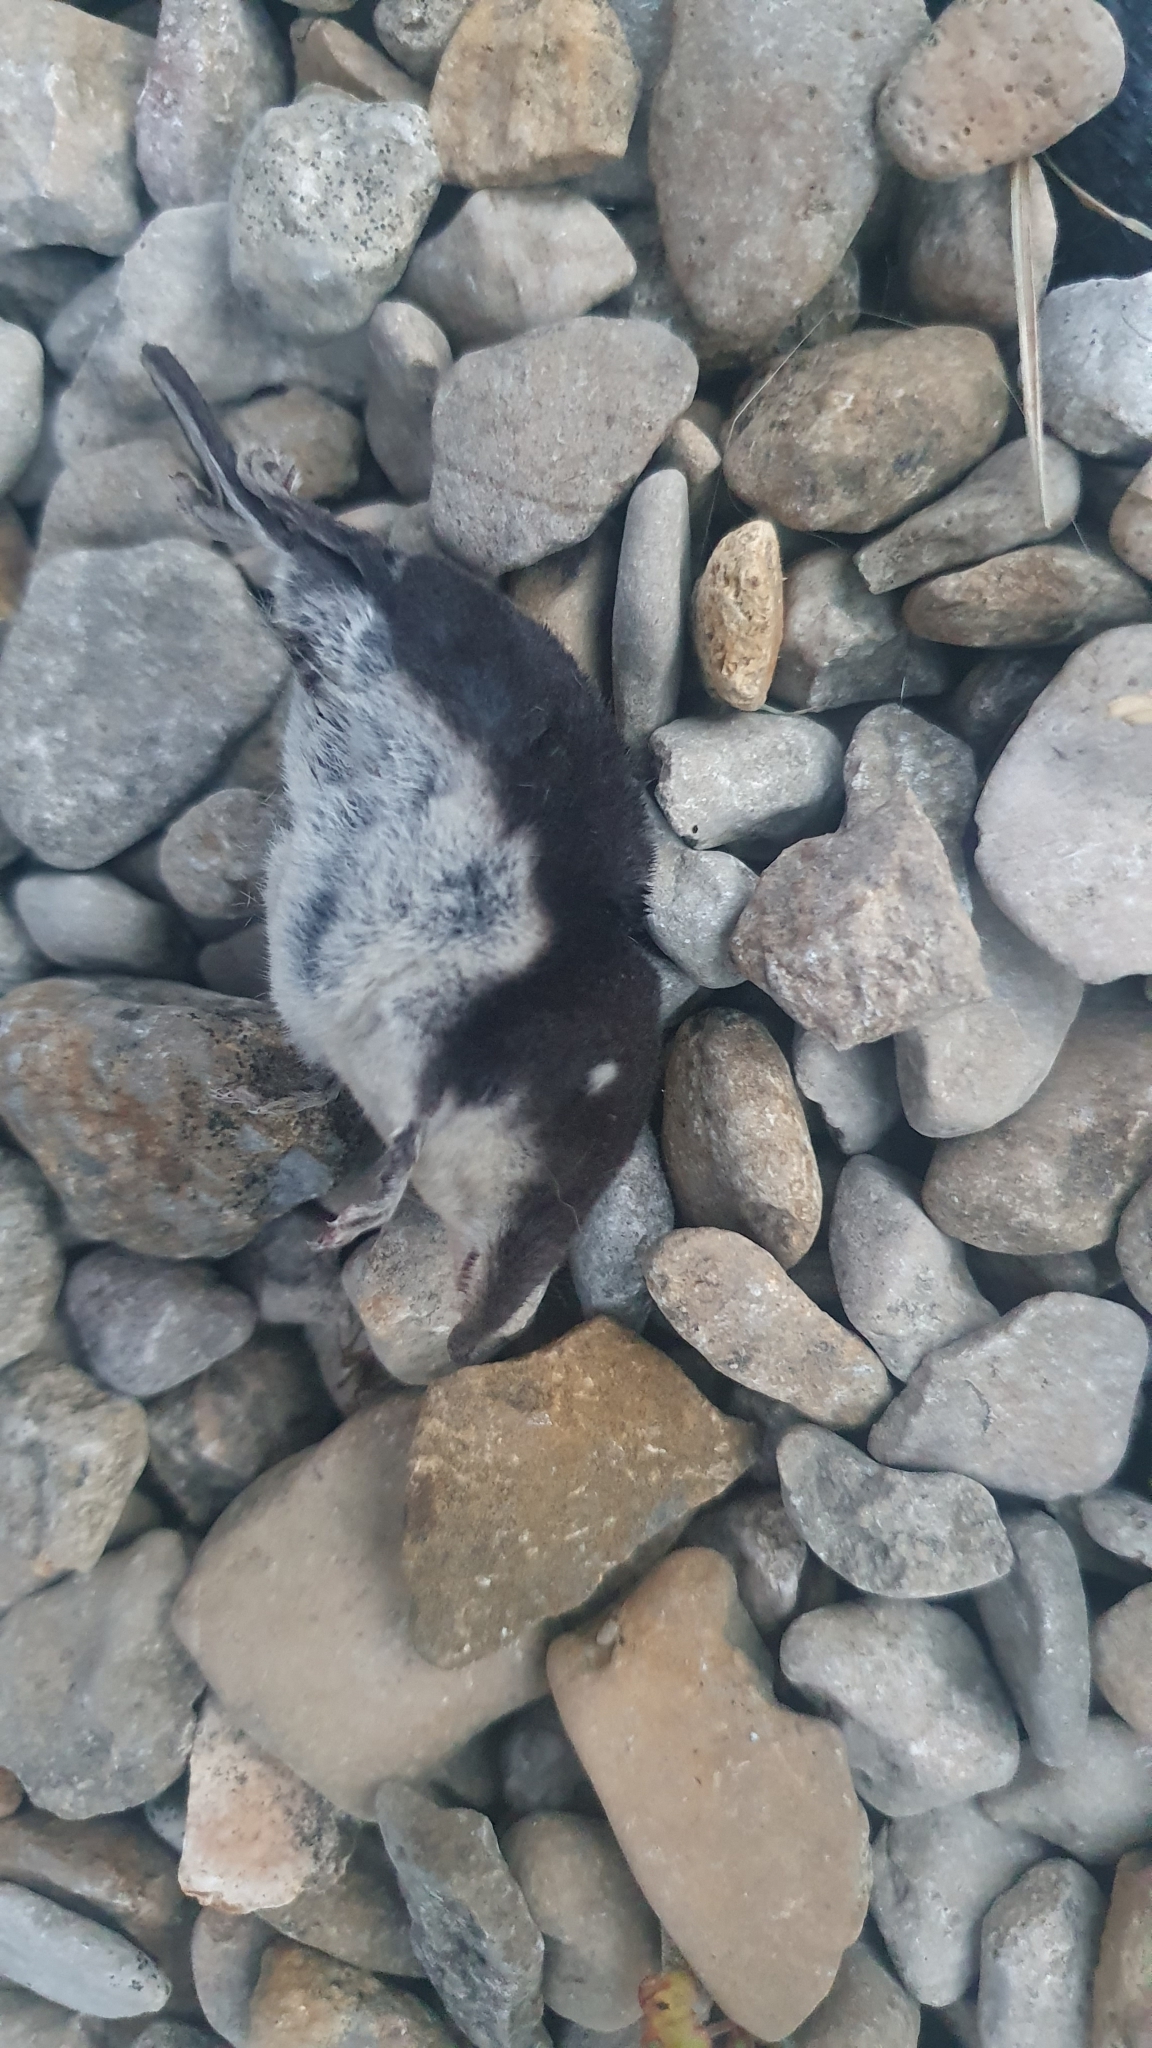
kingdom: Animalia
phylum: Chordata
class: Mammalia
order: Soricomorpha
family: Soricidae
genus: Neomys
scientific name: Neomys fodiens
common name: Eurasian water shrew
